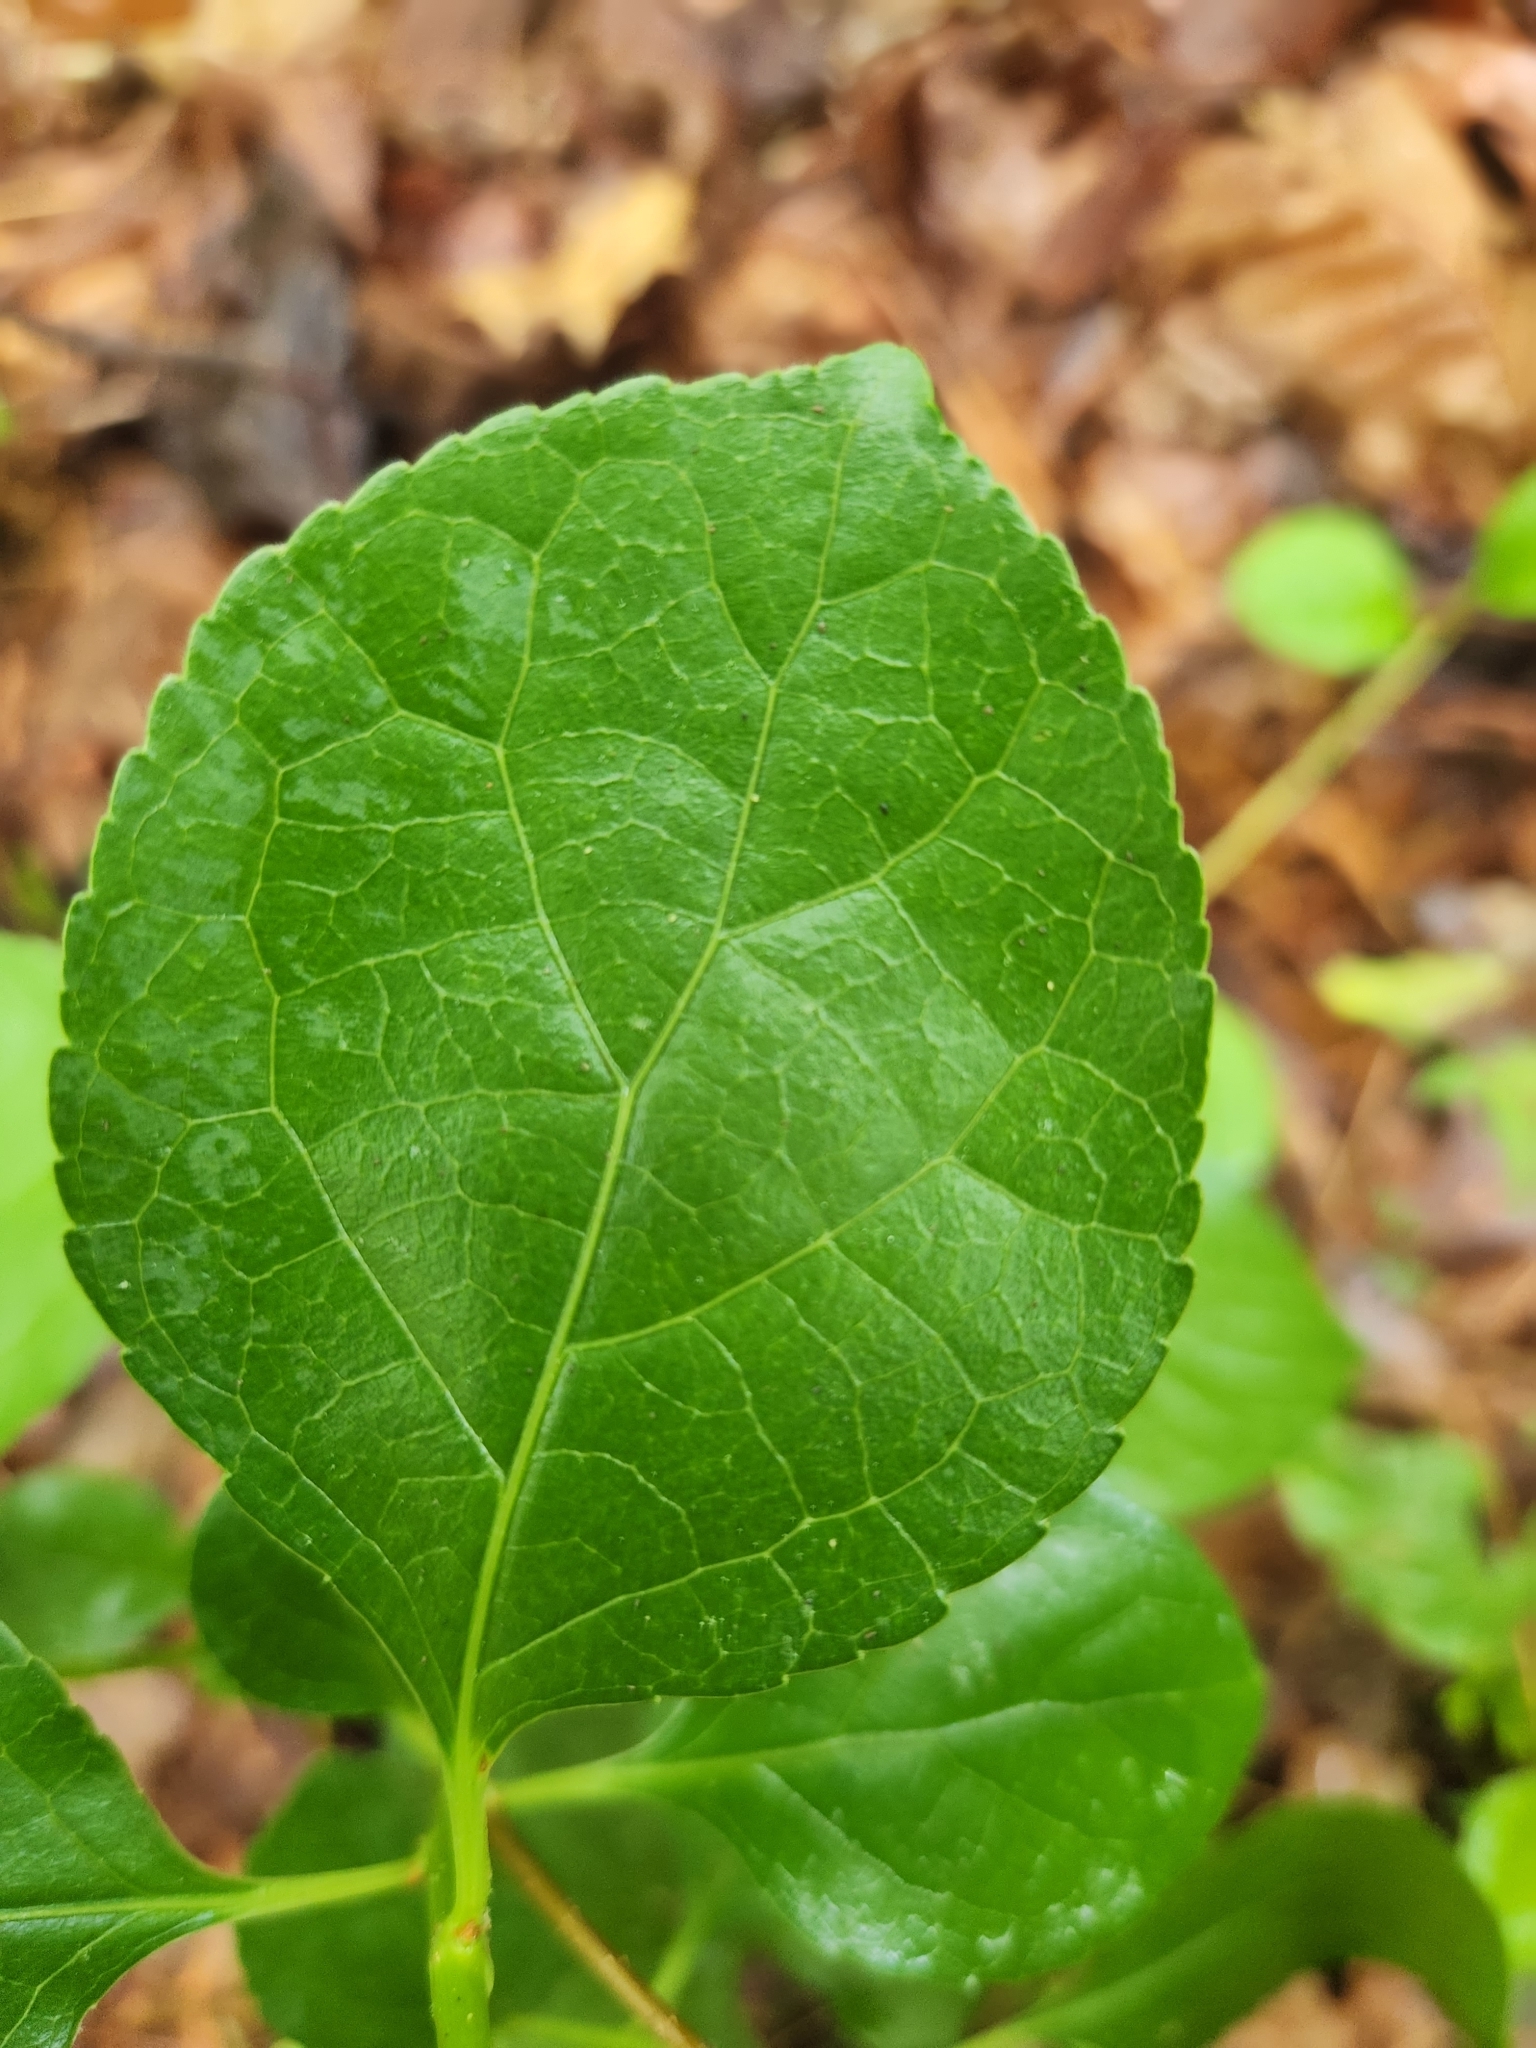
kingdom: Plantae
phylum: Tracheophyta
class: Magnoliopsida
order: Celastrales
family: Celastraceae
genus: Celastrus
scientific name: Celastrus orbiculatus
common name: Oriental bittersweet
